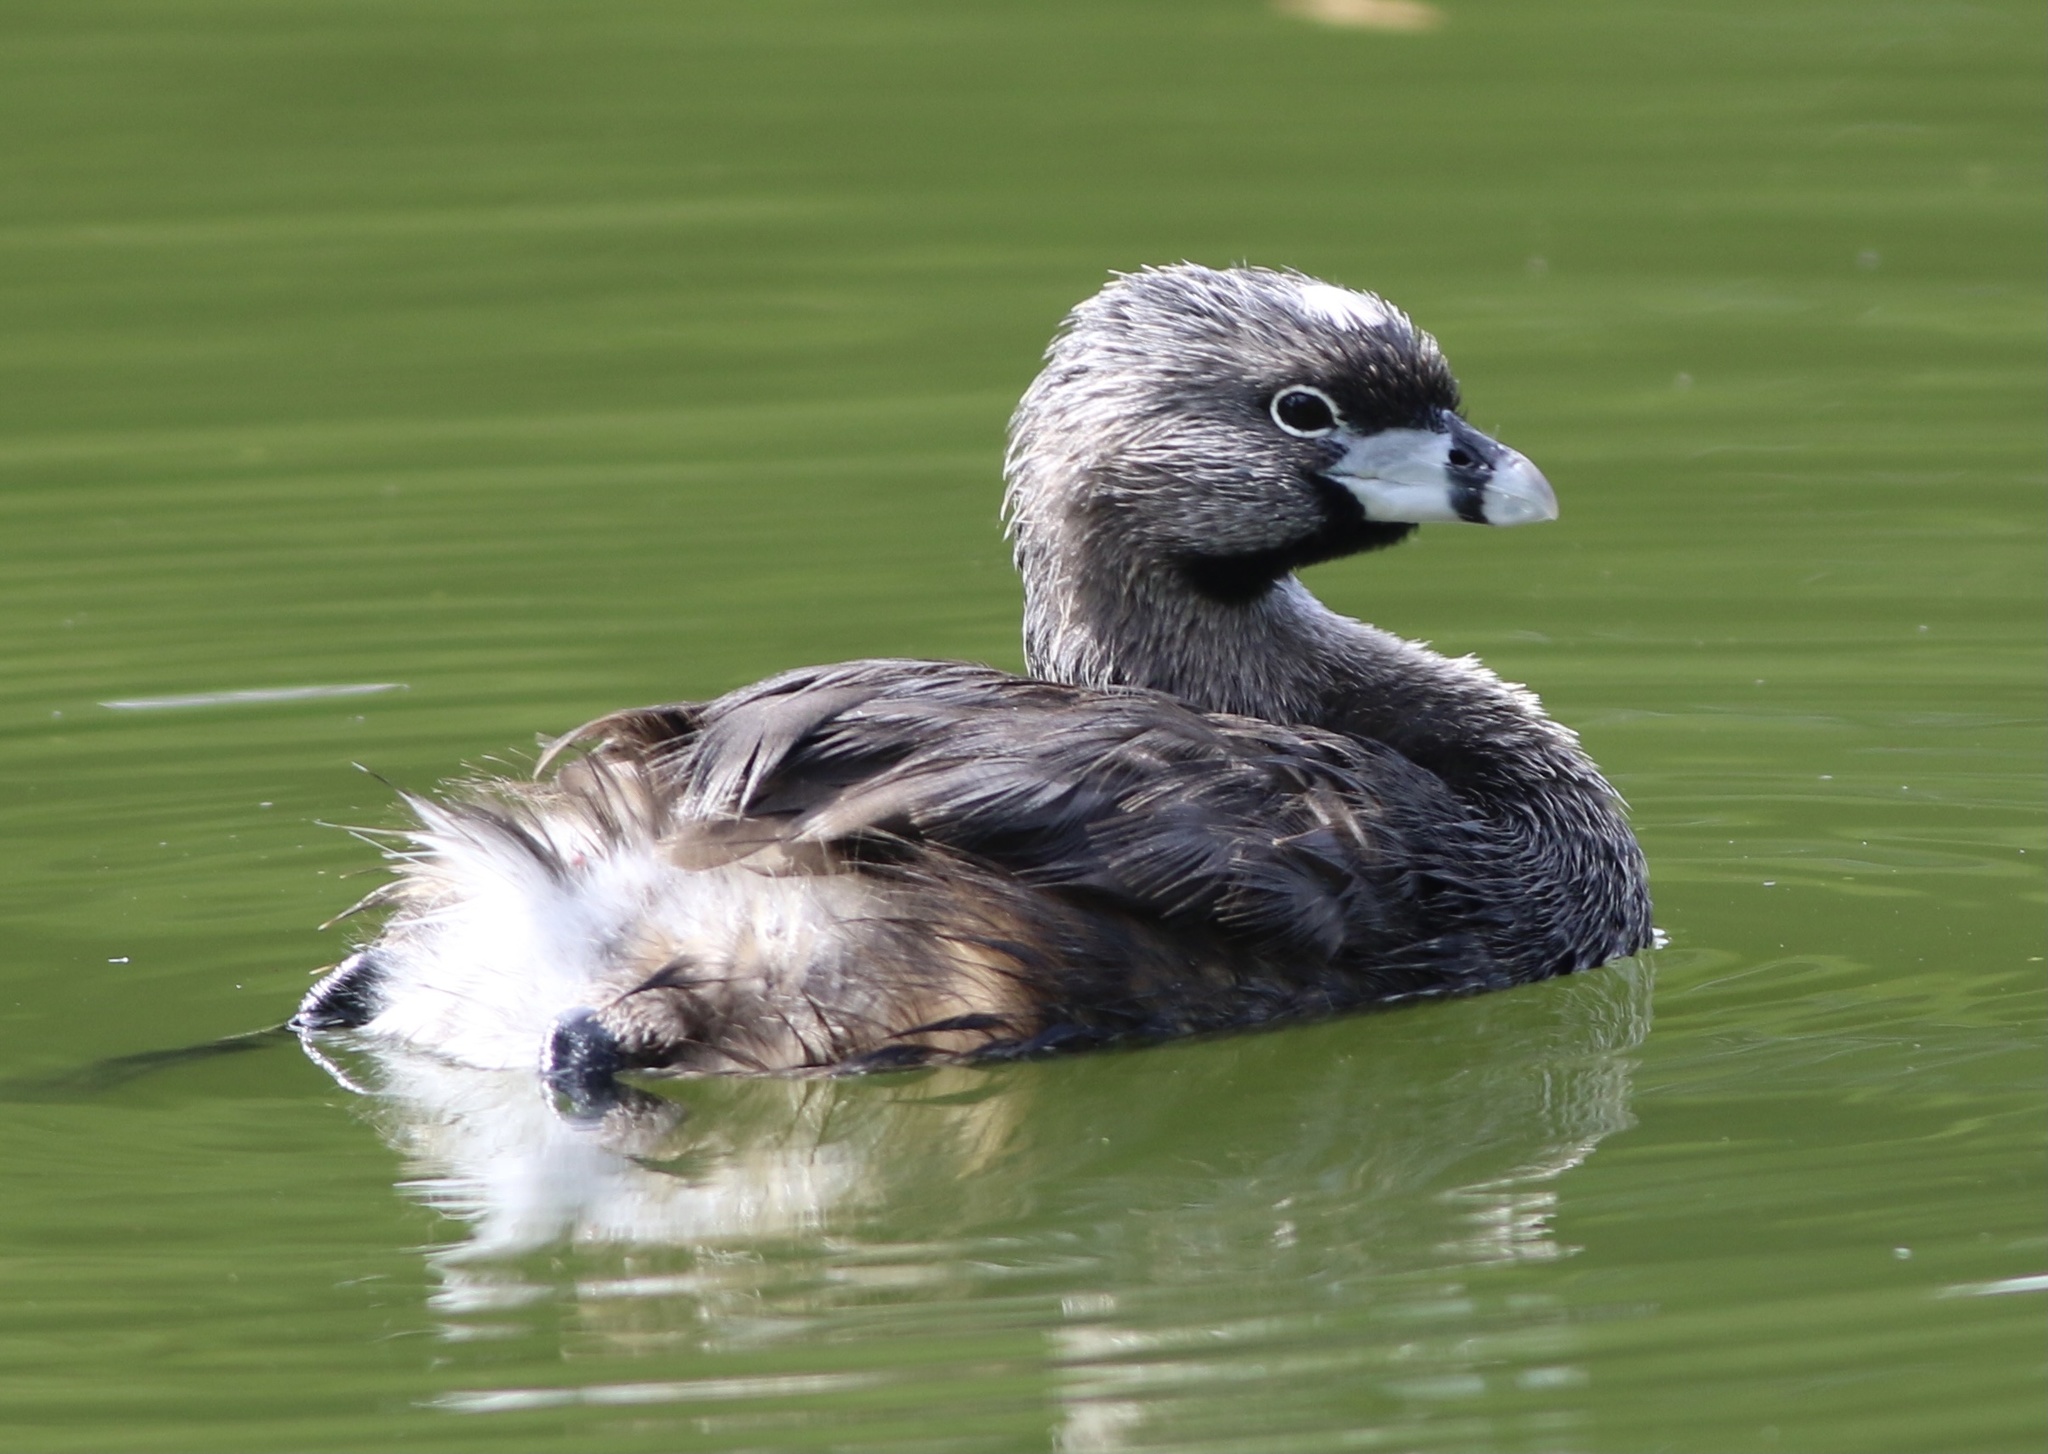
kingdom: Animalia
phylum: Chordata
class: Aves
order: Podicipediformes
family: Podicipedidae
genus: Podilymbus
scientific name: Podilymbus podiceps
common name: Pied-billed grebe
